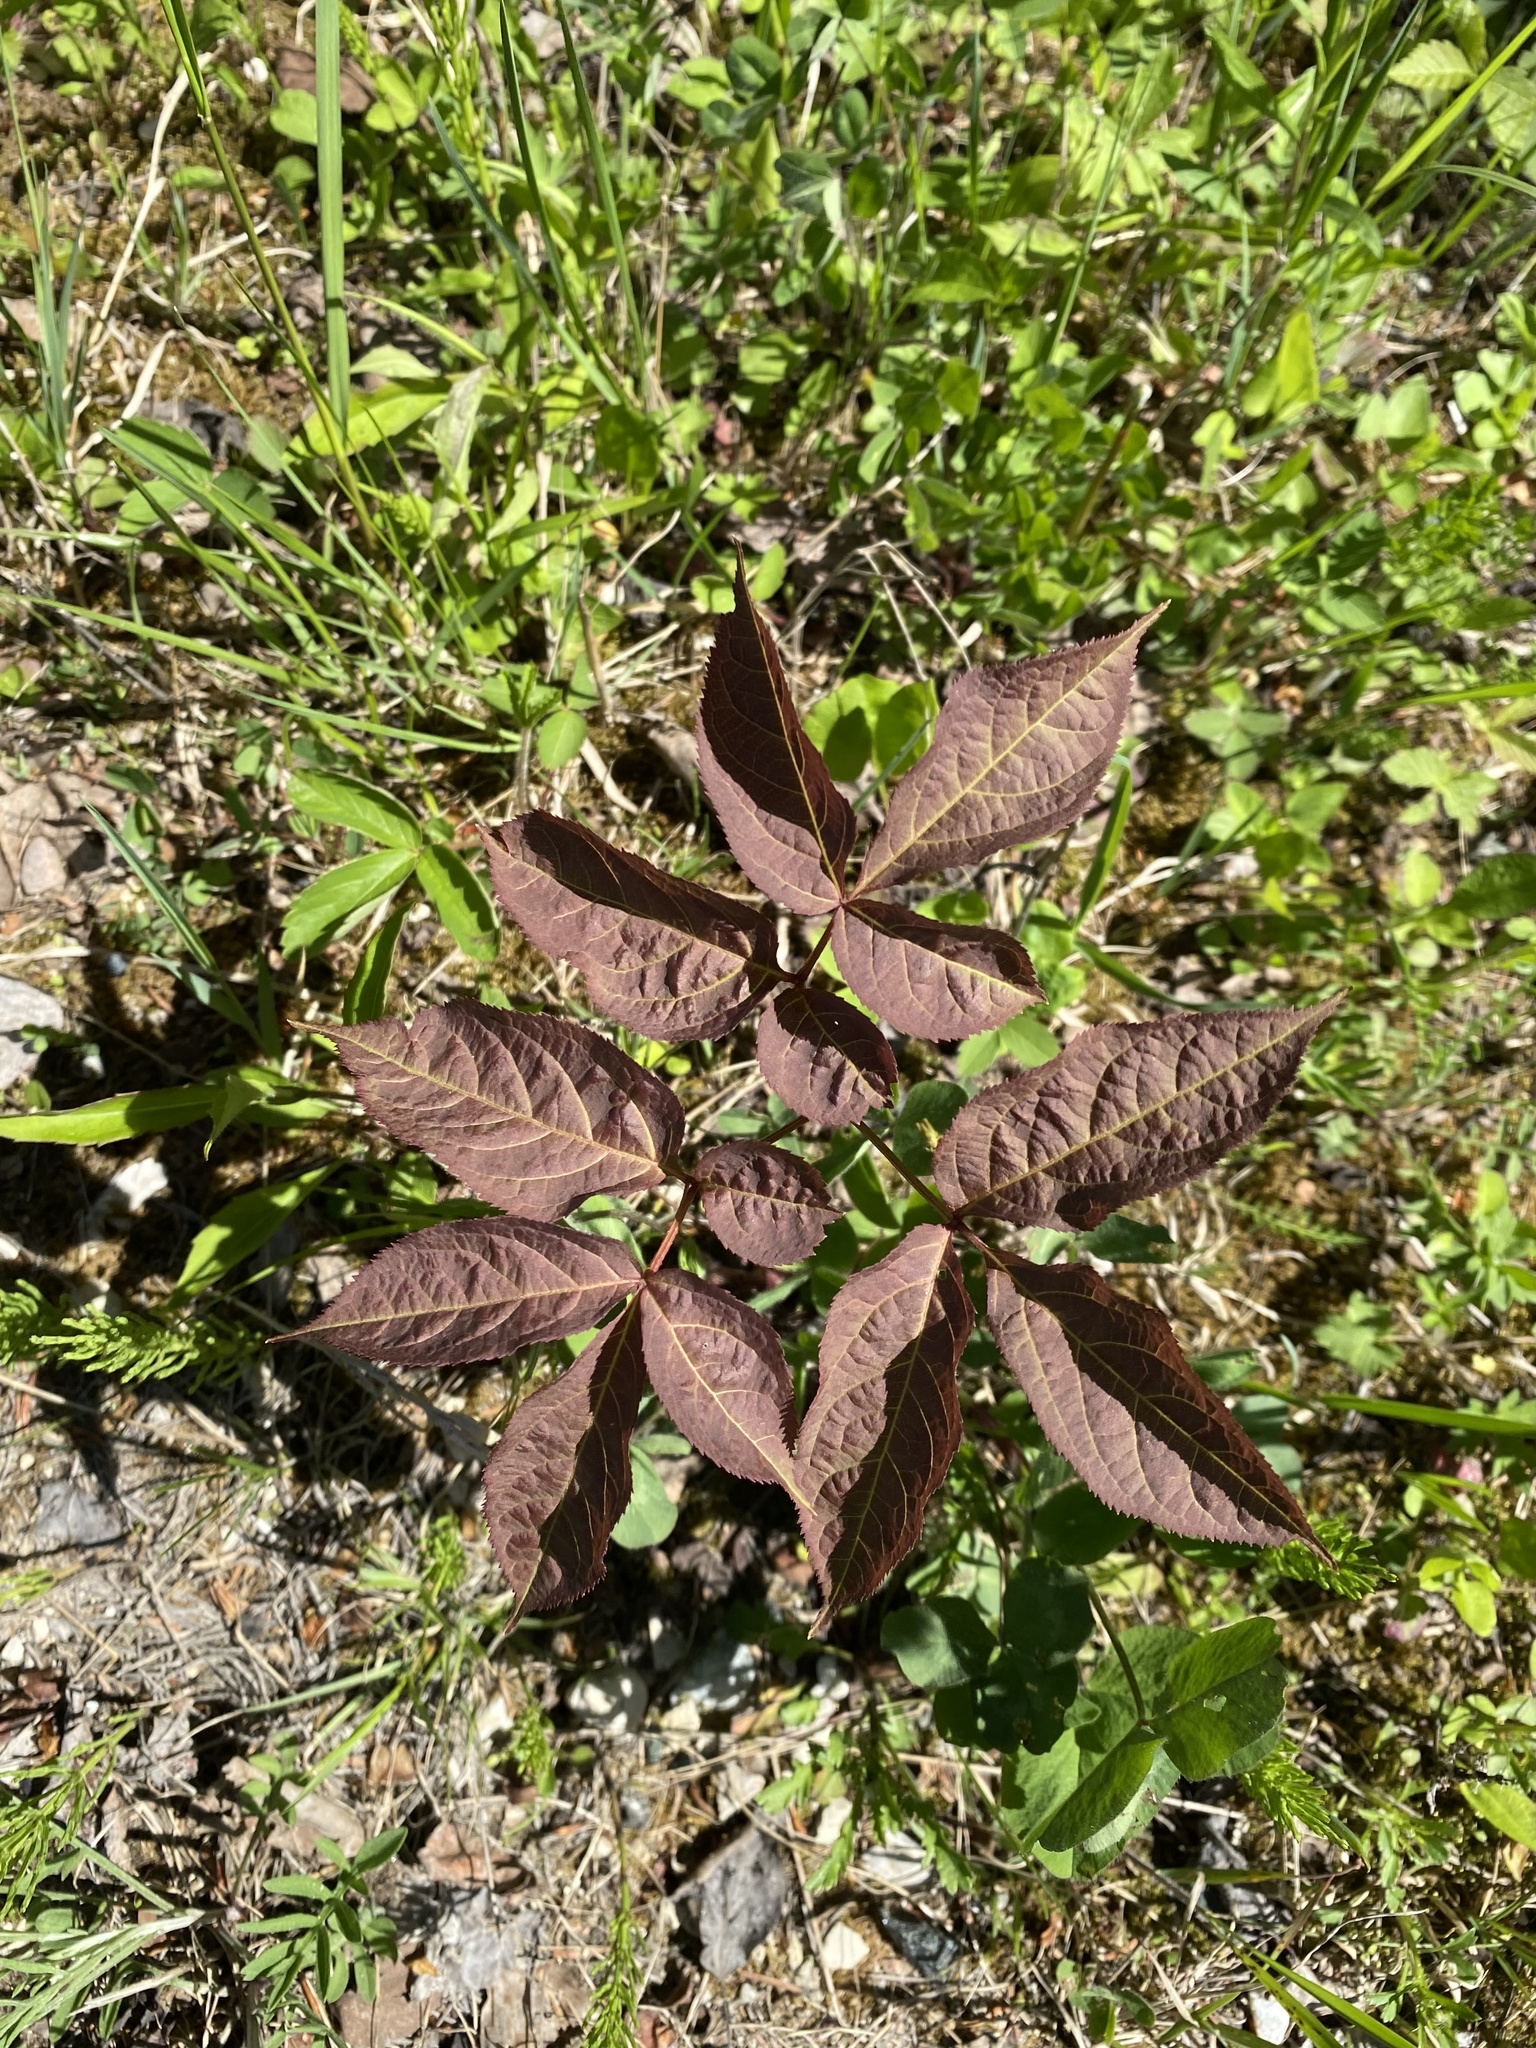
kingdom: Plantae
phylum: Tracheophyta
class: Magnoliopsida
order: Apiales
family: Araliaceae
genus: Aralia
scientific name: Aralia nudicaulis
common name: Wild sarsaparilla
